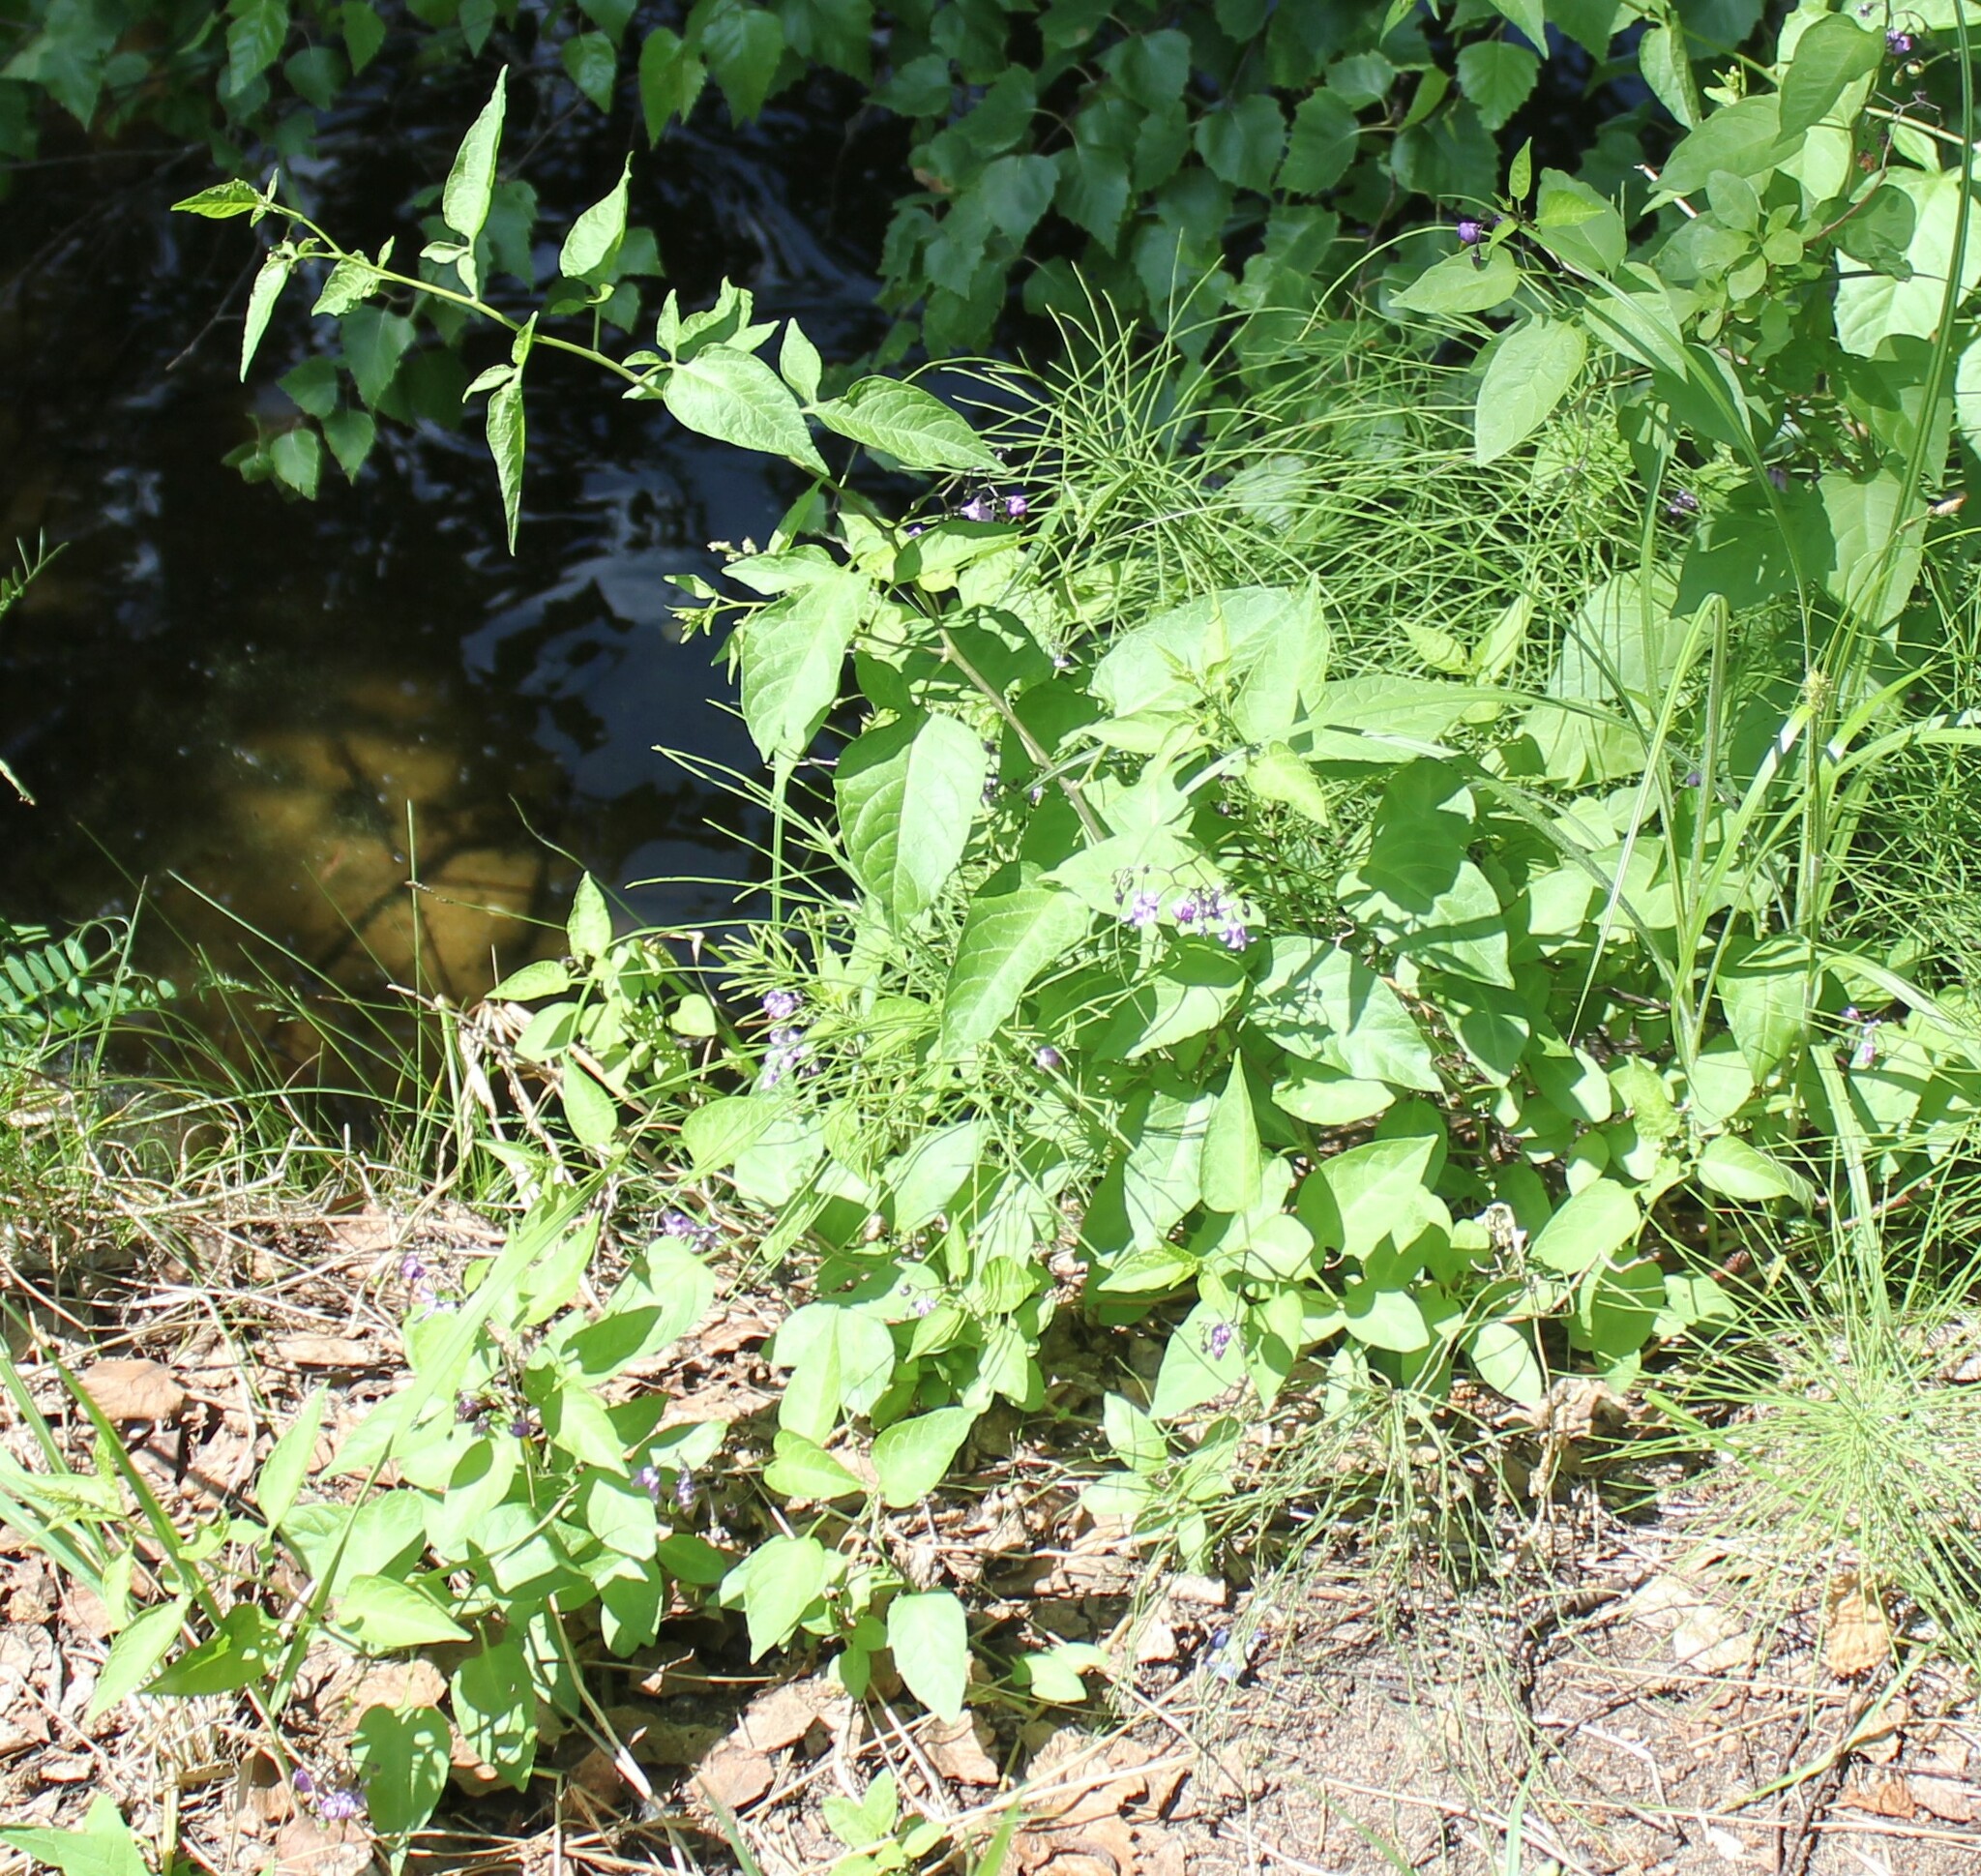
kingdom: Plantae
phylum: Tracheophyta
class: Magnoliopsida
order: Solanales
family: Solanaceae
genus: Solanum
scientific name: Solanum dulcamara
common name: Climbing nightshade
